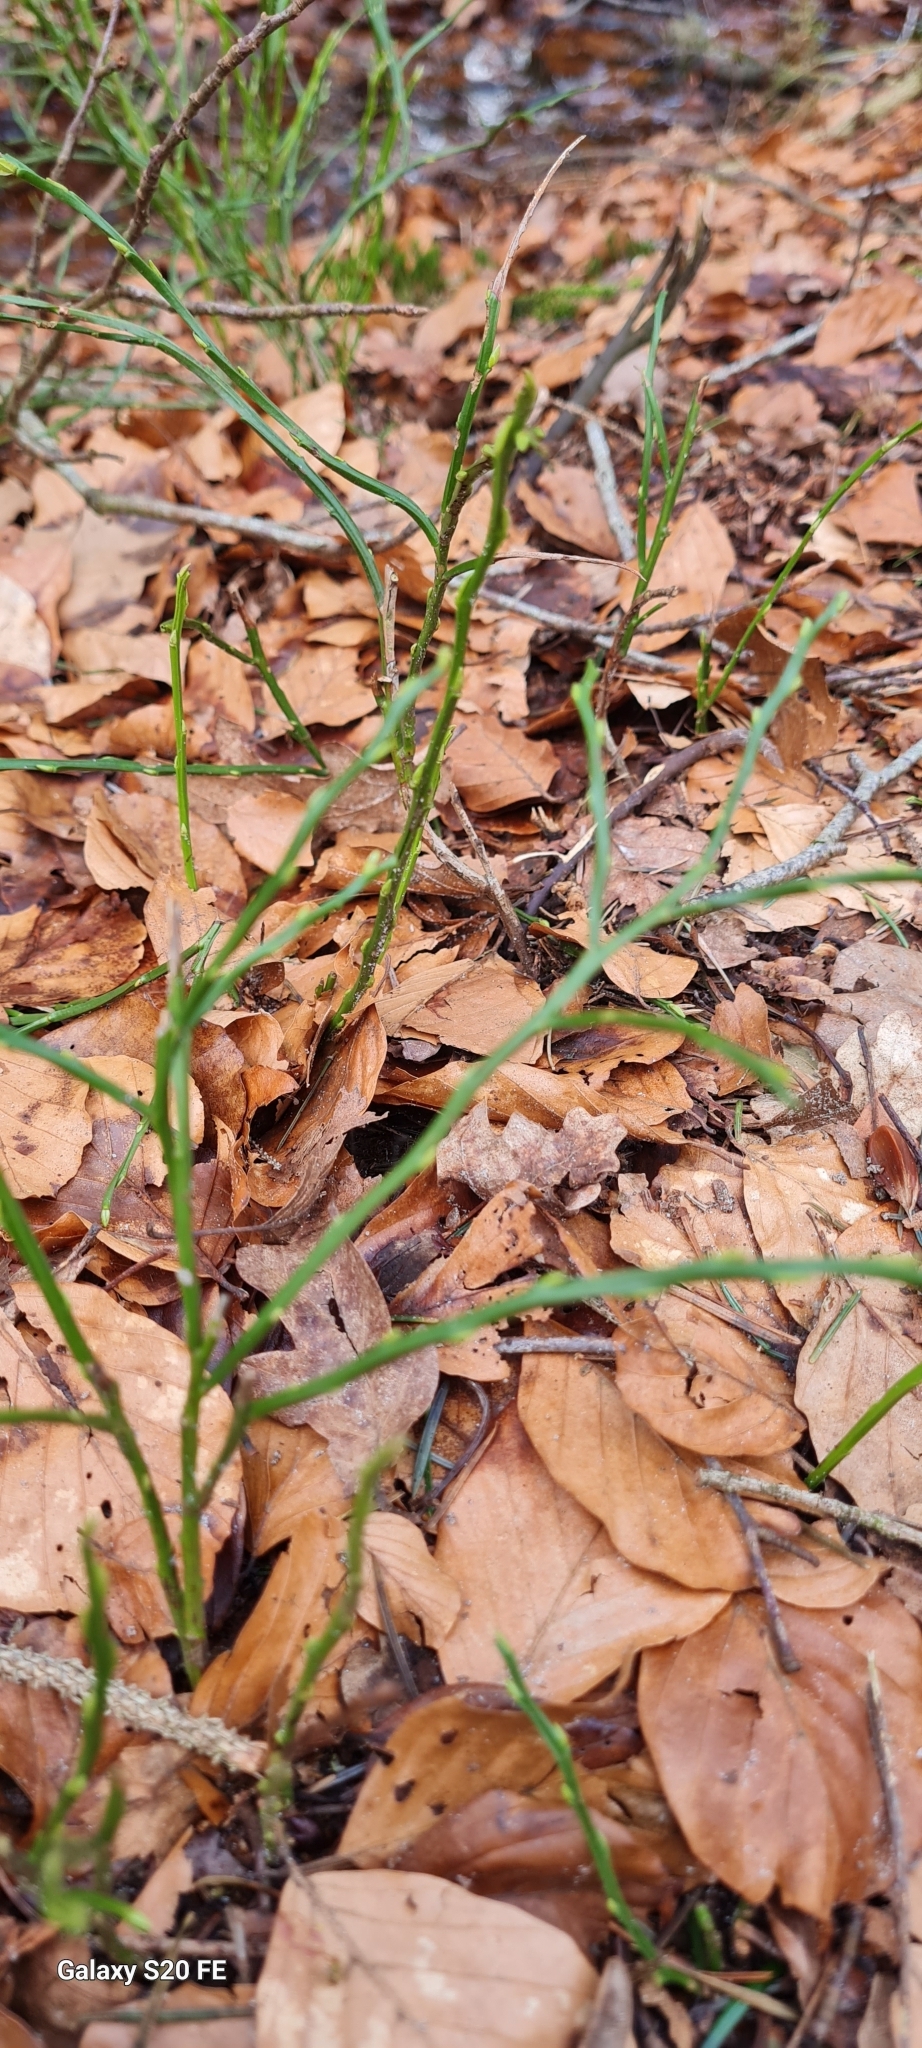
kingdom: Plantae
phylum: Tracheophyta
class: Magnoliopsida
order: Ericales
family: Ericaceae
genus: Vaccinium
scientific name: Vaccinium myrtillus
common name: Bilberry
